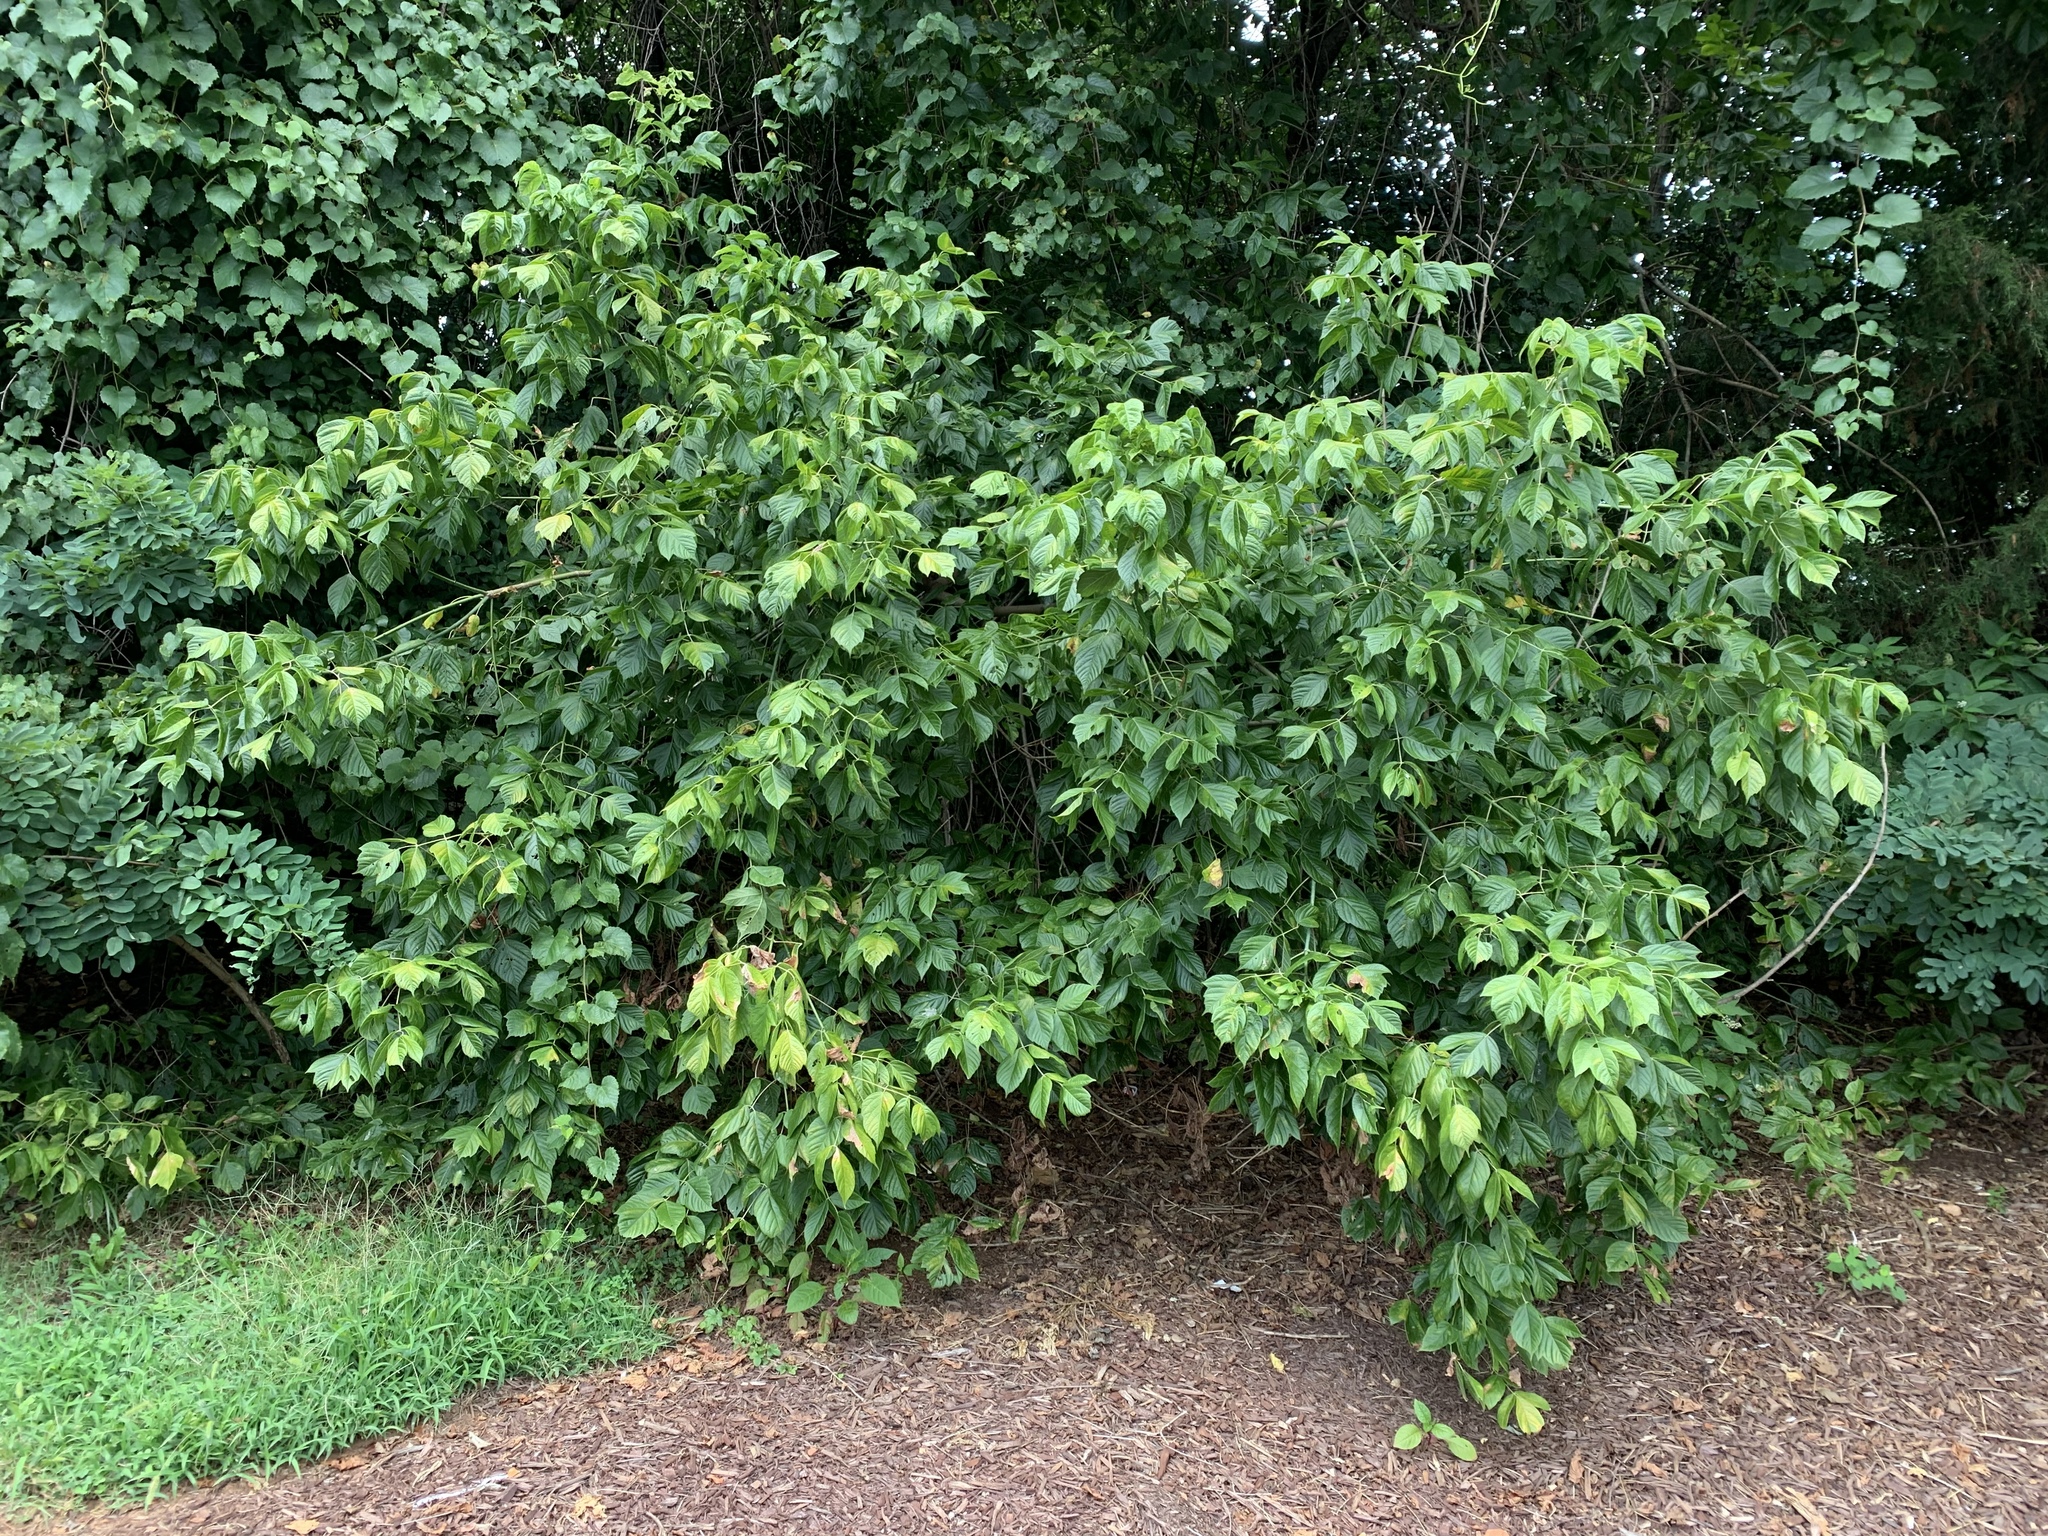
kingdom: Plantae
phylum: Tracheophyta
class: Magnoliopsida
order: Sapindales
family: Sapindaceae
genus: Acer
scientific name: Acer negundo
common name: Ashleaf maple
